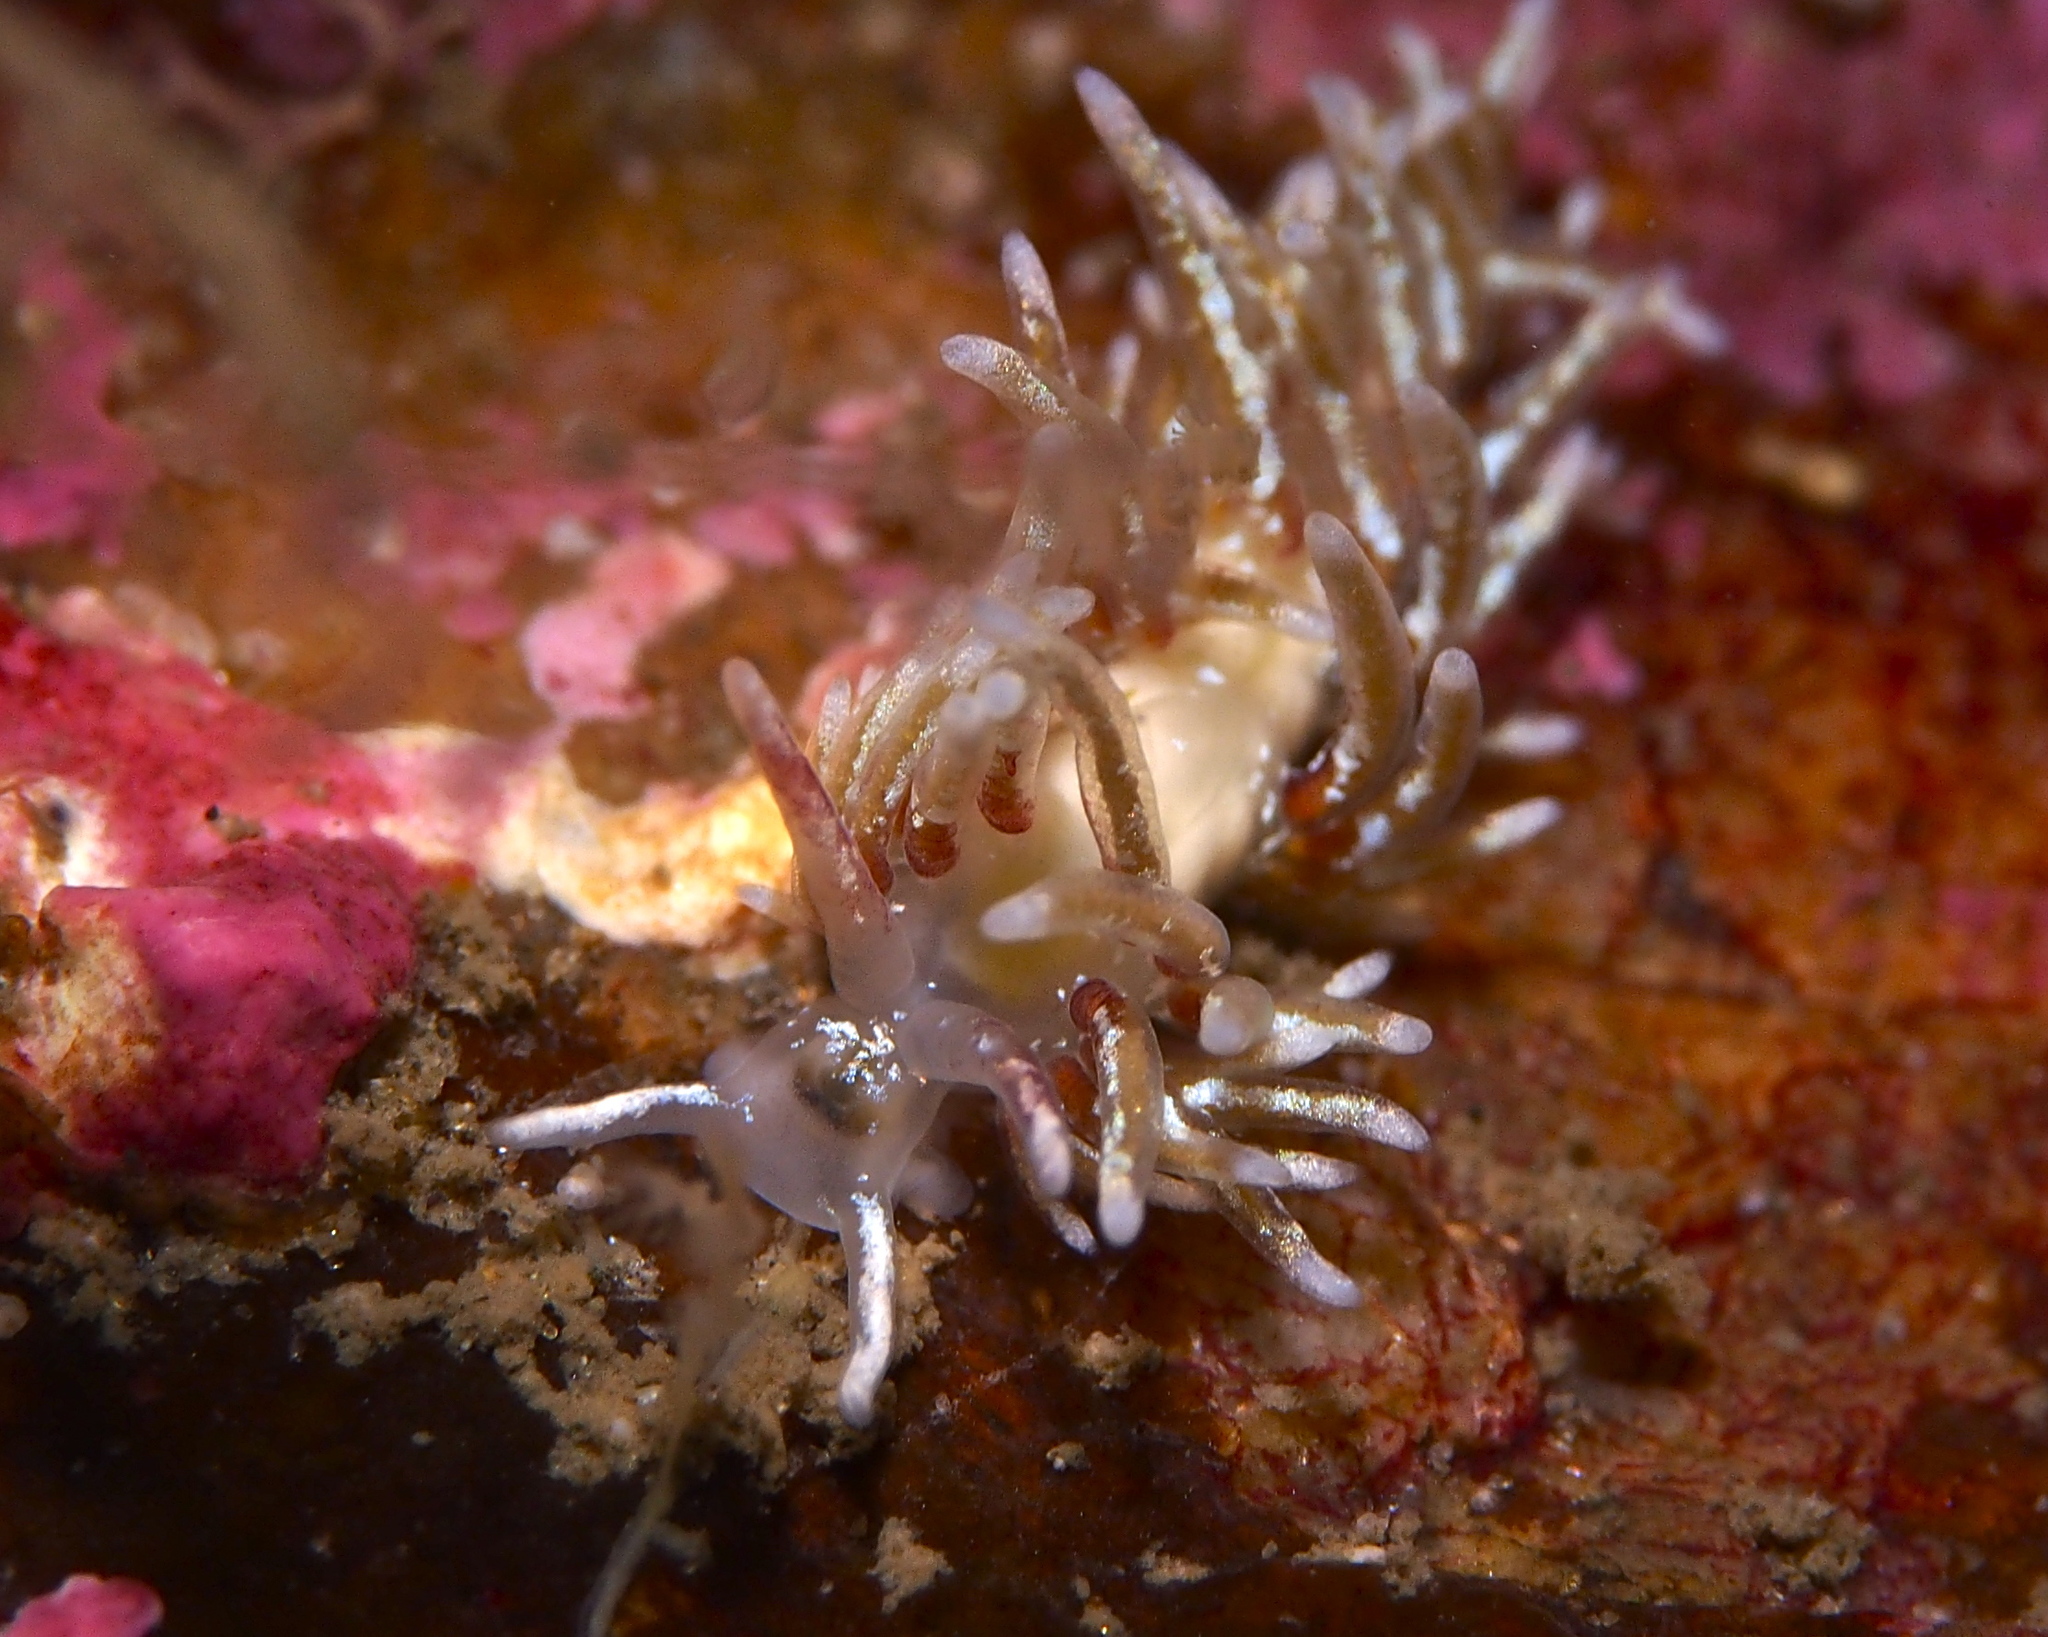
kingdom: Animalia
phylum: Mollusca
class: Gastropoda
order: Nudibranchia
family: Trinchesiidae
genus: Rubramoena
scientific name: Rubramoena rubescens
